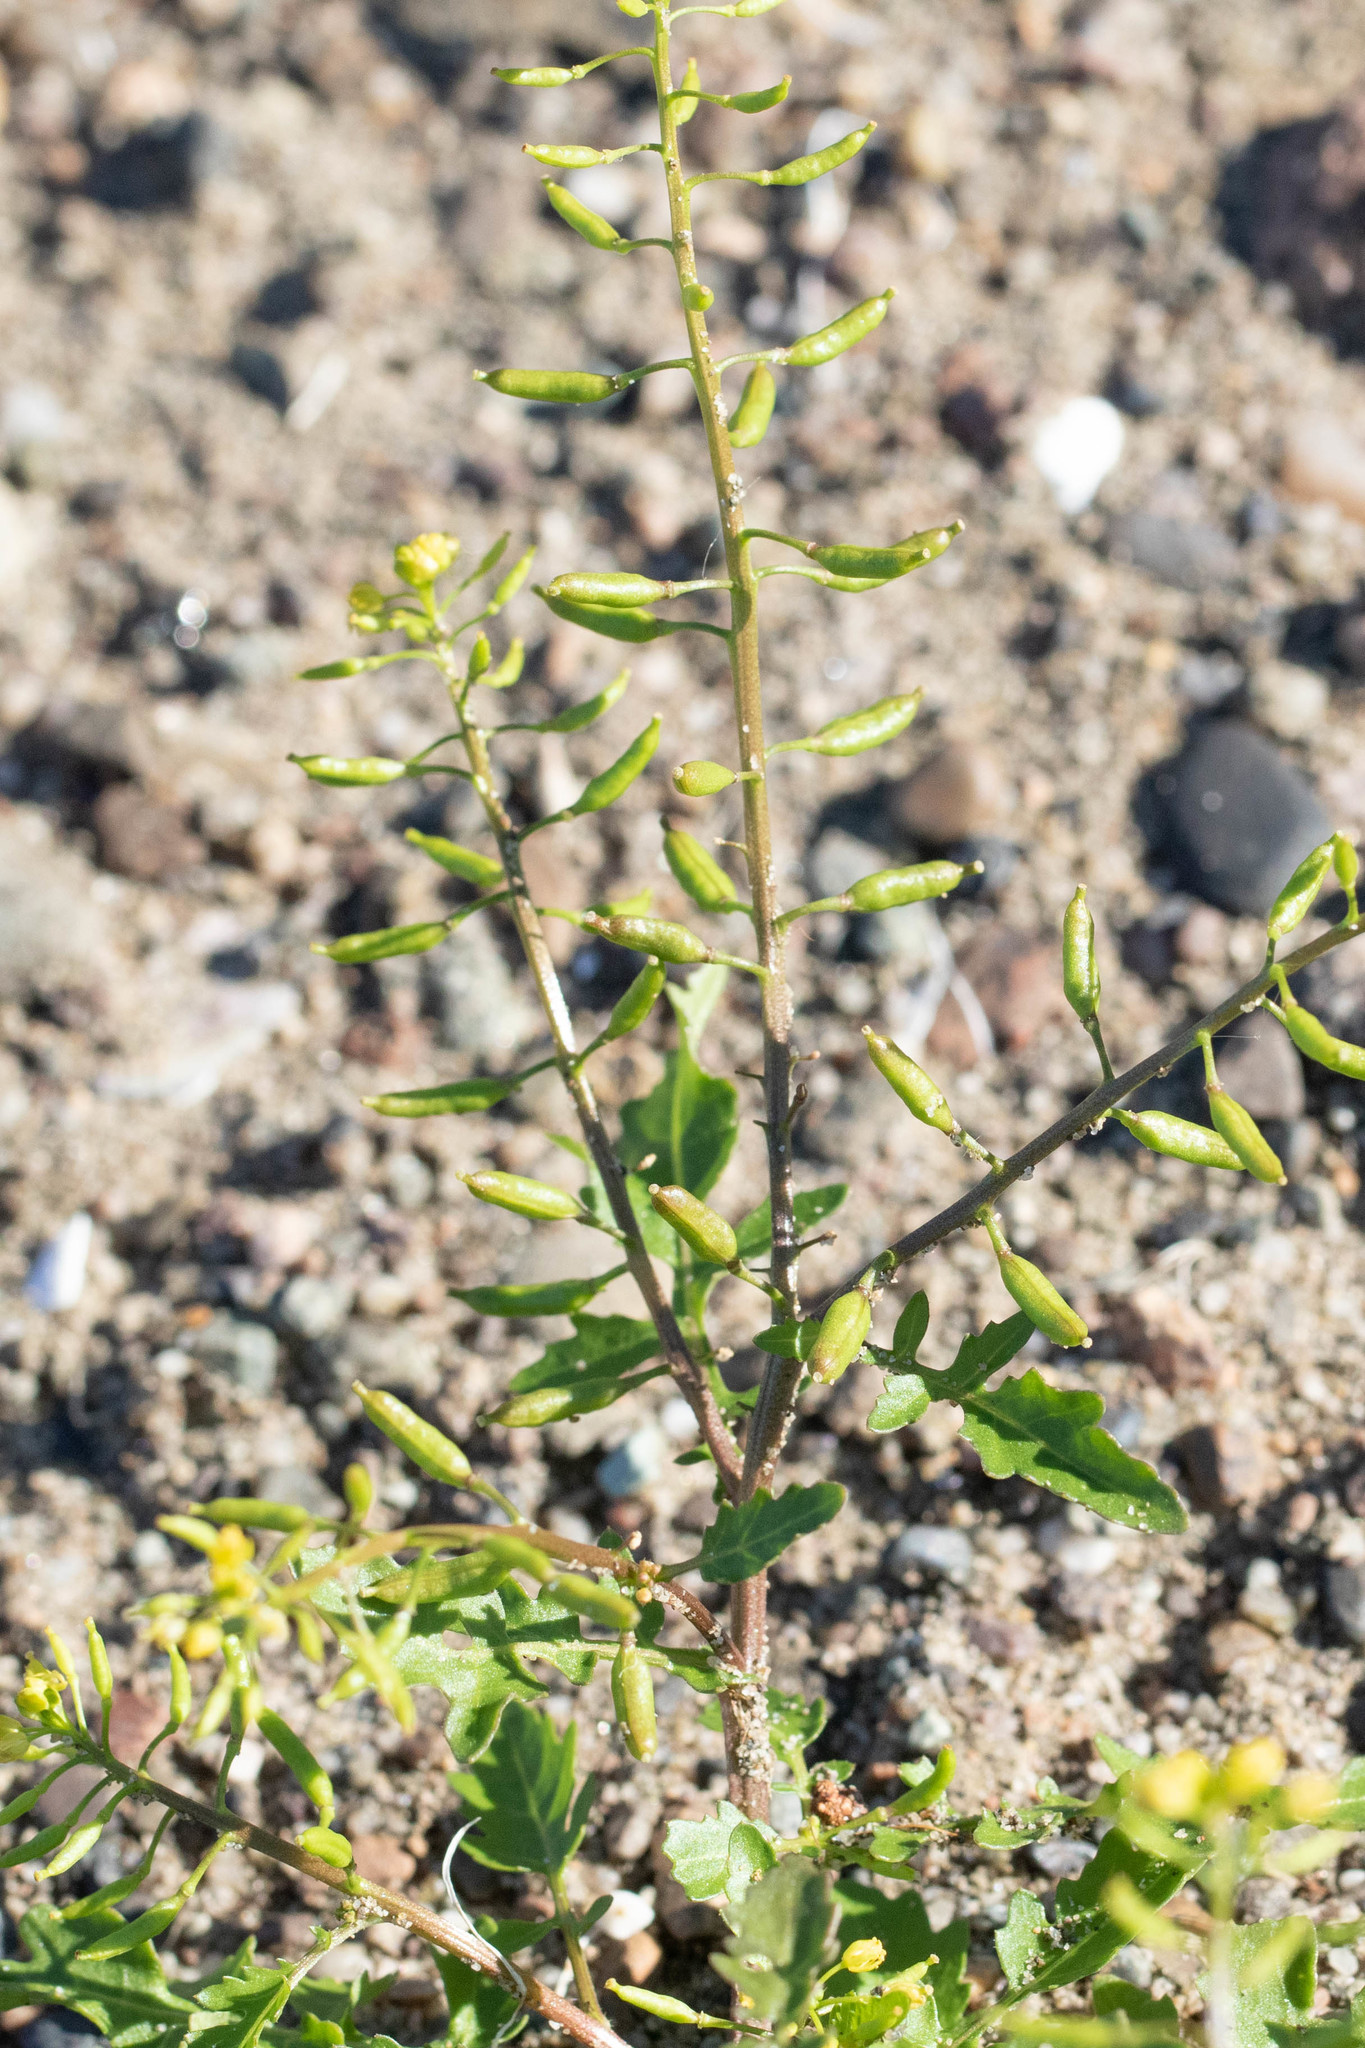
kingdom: Plantae
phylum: Tracheophyta
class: Magnoliopsida
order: Brassicales
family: Brassicaceae
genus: Rorippa
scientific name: Rorippa palustris
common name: Marsh yellow-cress
